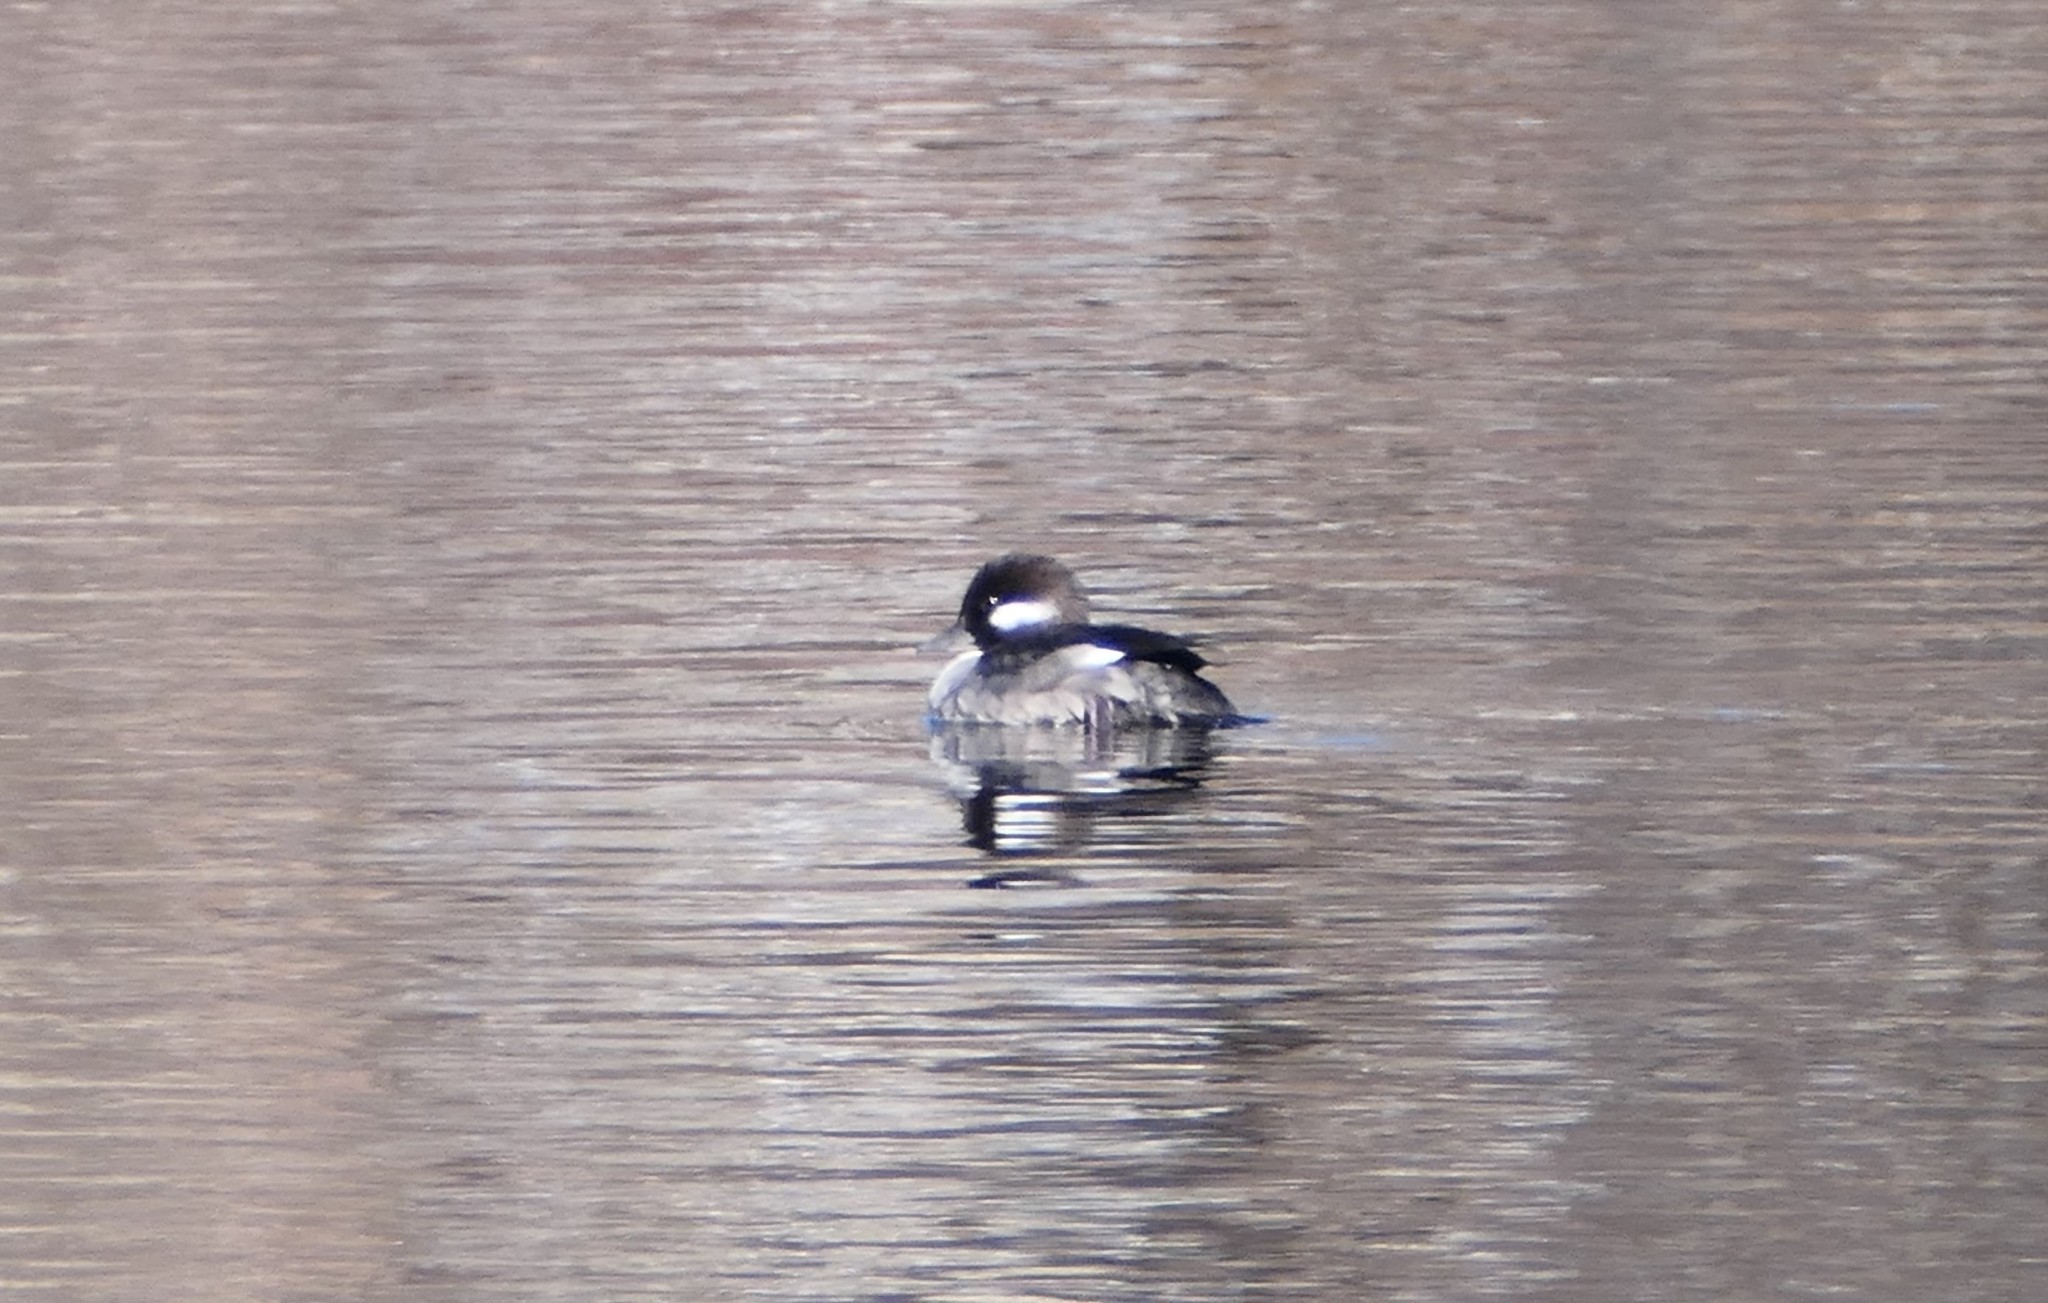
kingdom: Animalia
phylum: Chordata
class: Aves
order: Anseriformes
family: Anatidae
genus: Bucephala
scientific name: Bucephala albeola
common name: Bufflehead
